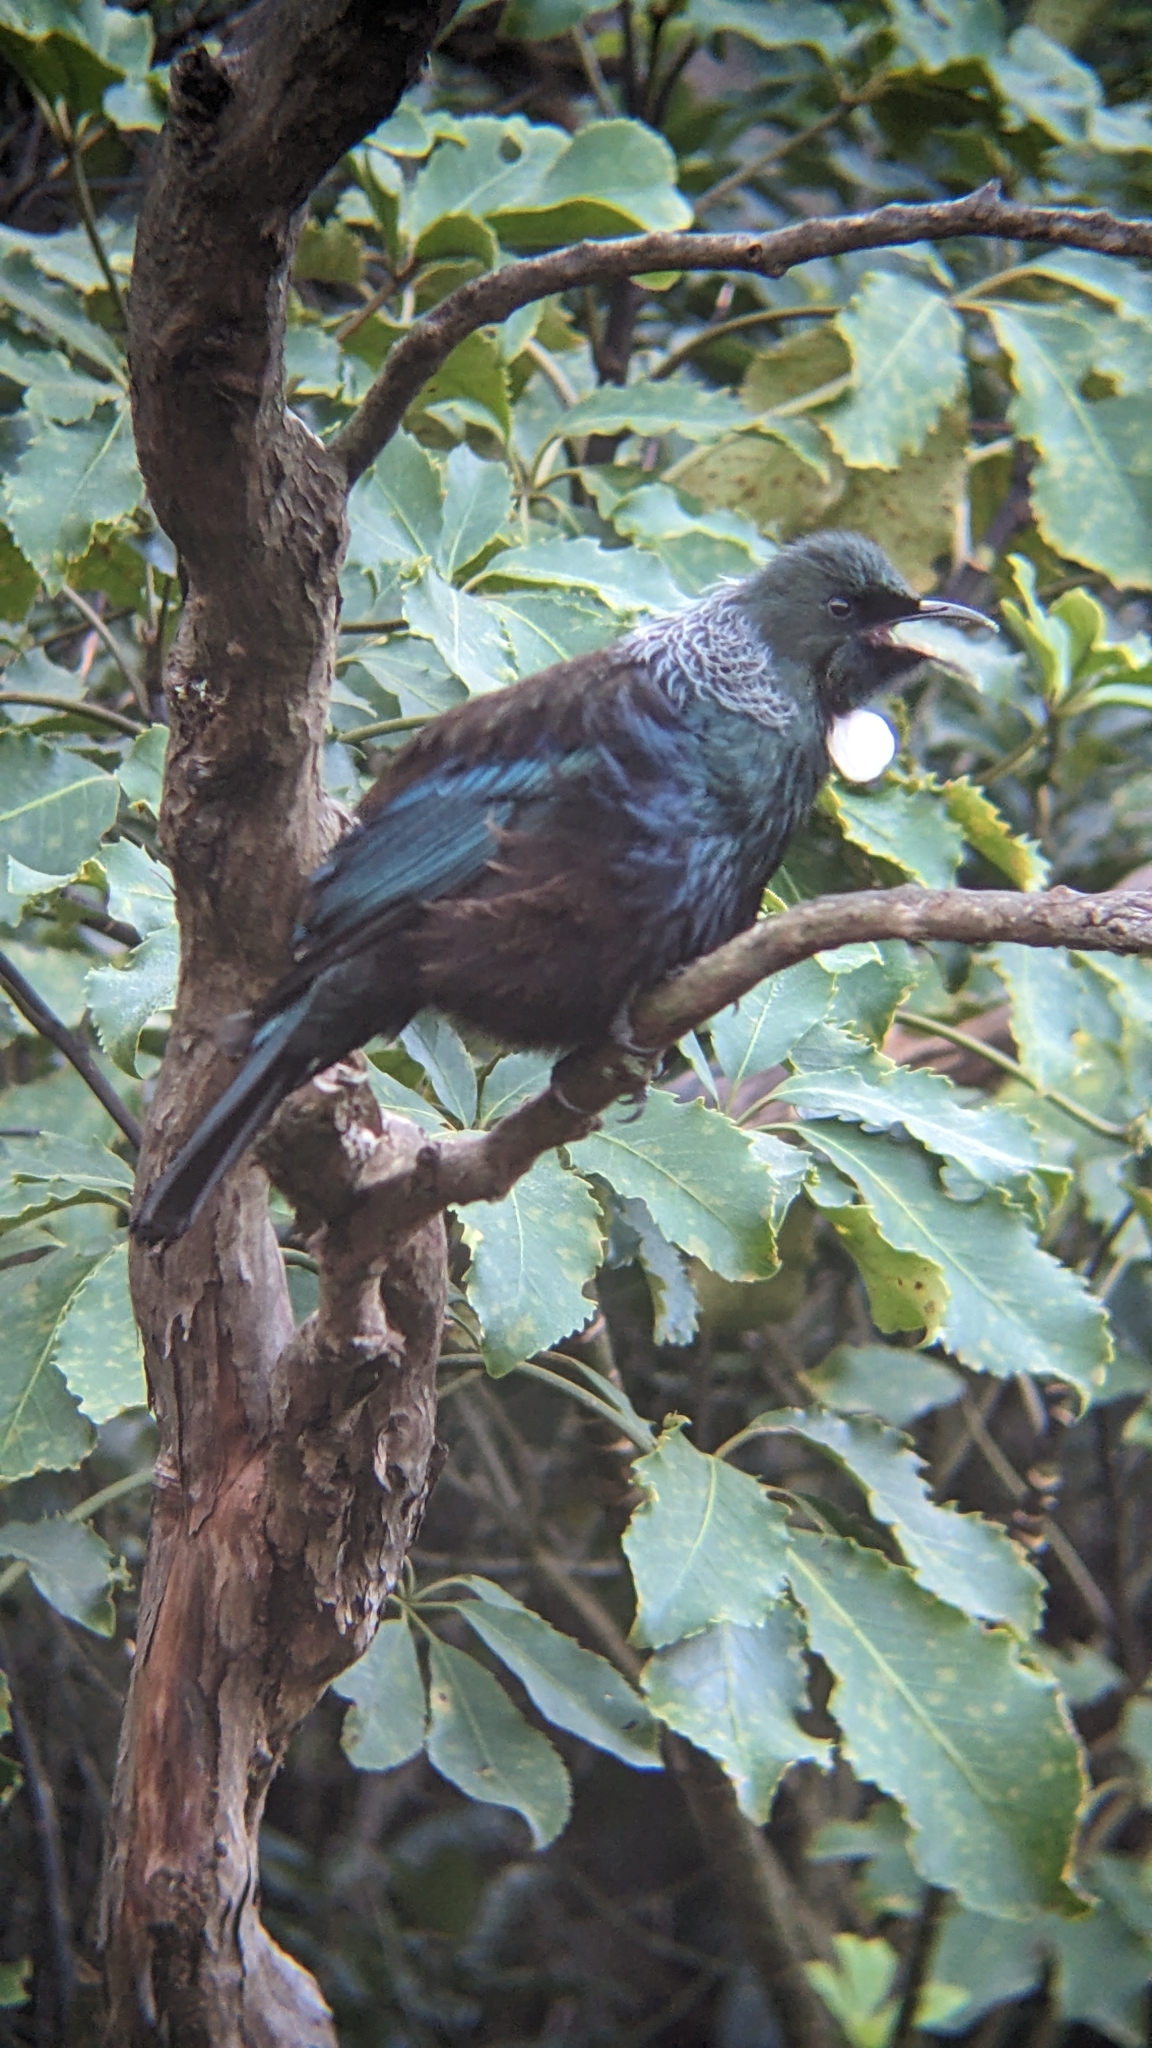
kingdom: Animalia
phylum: Chordata
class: Aves
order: Passeriformes
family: Meliphagidae
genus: Prosthemadera
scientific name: Prosthemadera novaeseelandiae
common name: Tui
